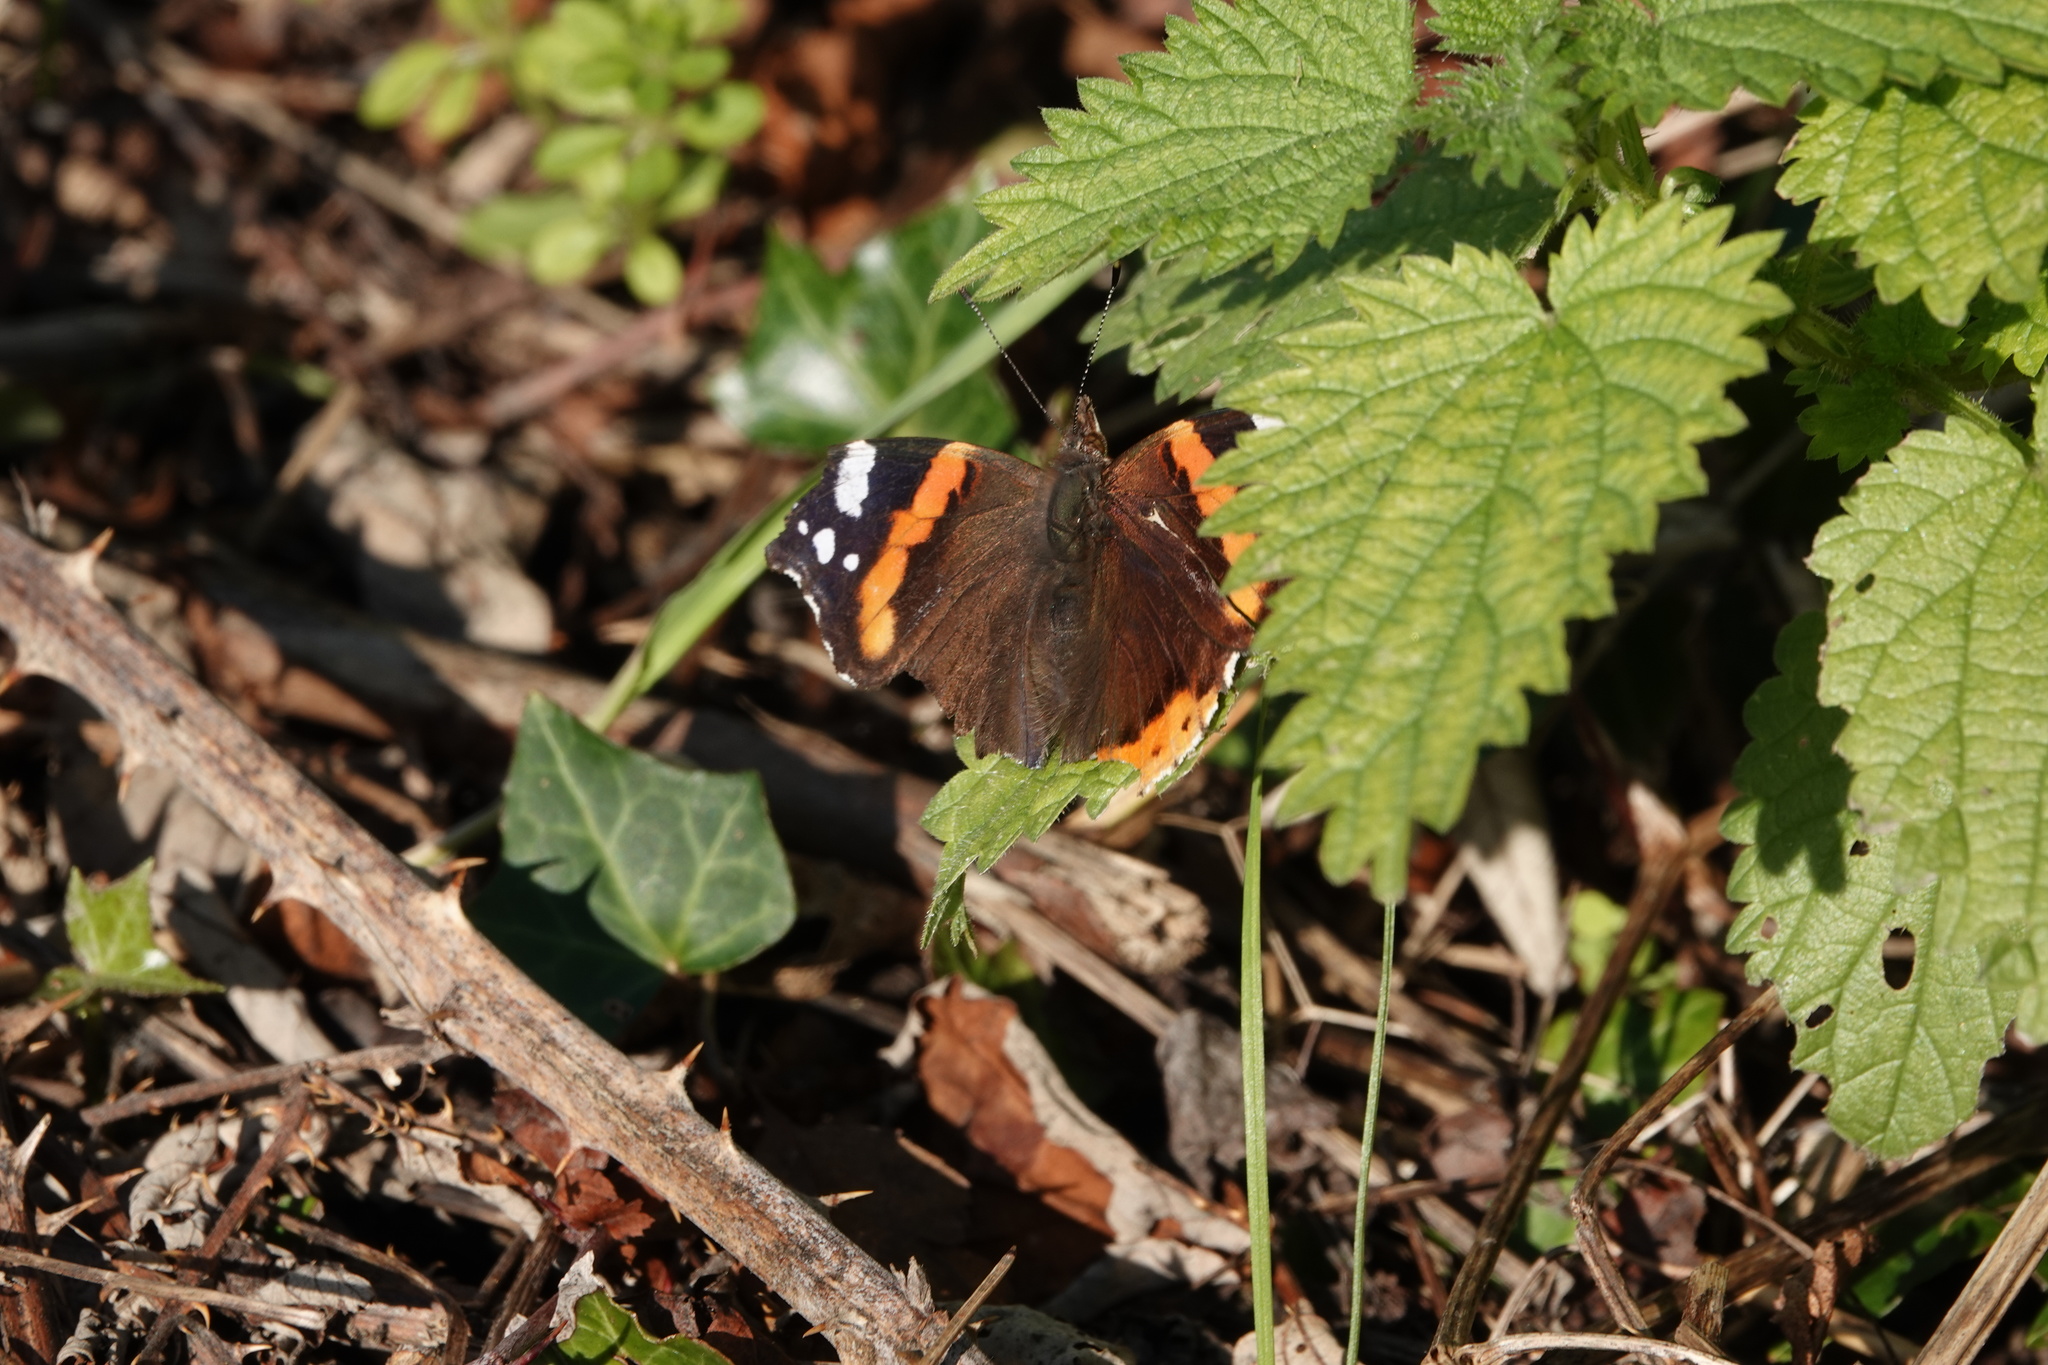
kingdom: Animalia
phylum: Arthropoda
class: Insecta
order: Lepidoptera
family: Nymphalidae
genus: Vanessa
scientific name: Vanessa atalanta
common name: Red admiral
